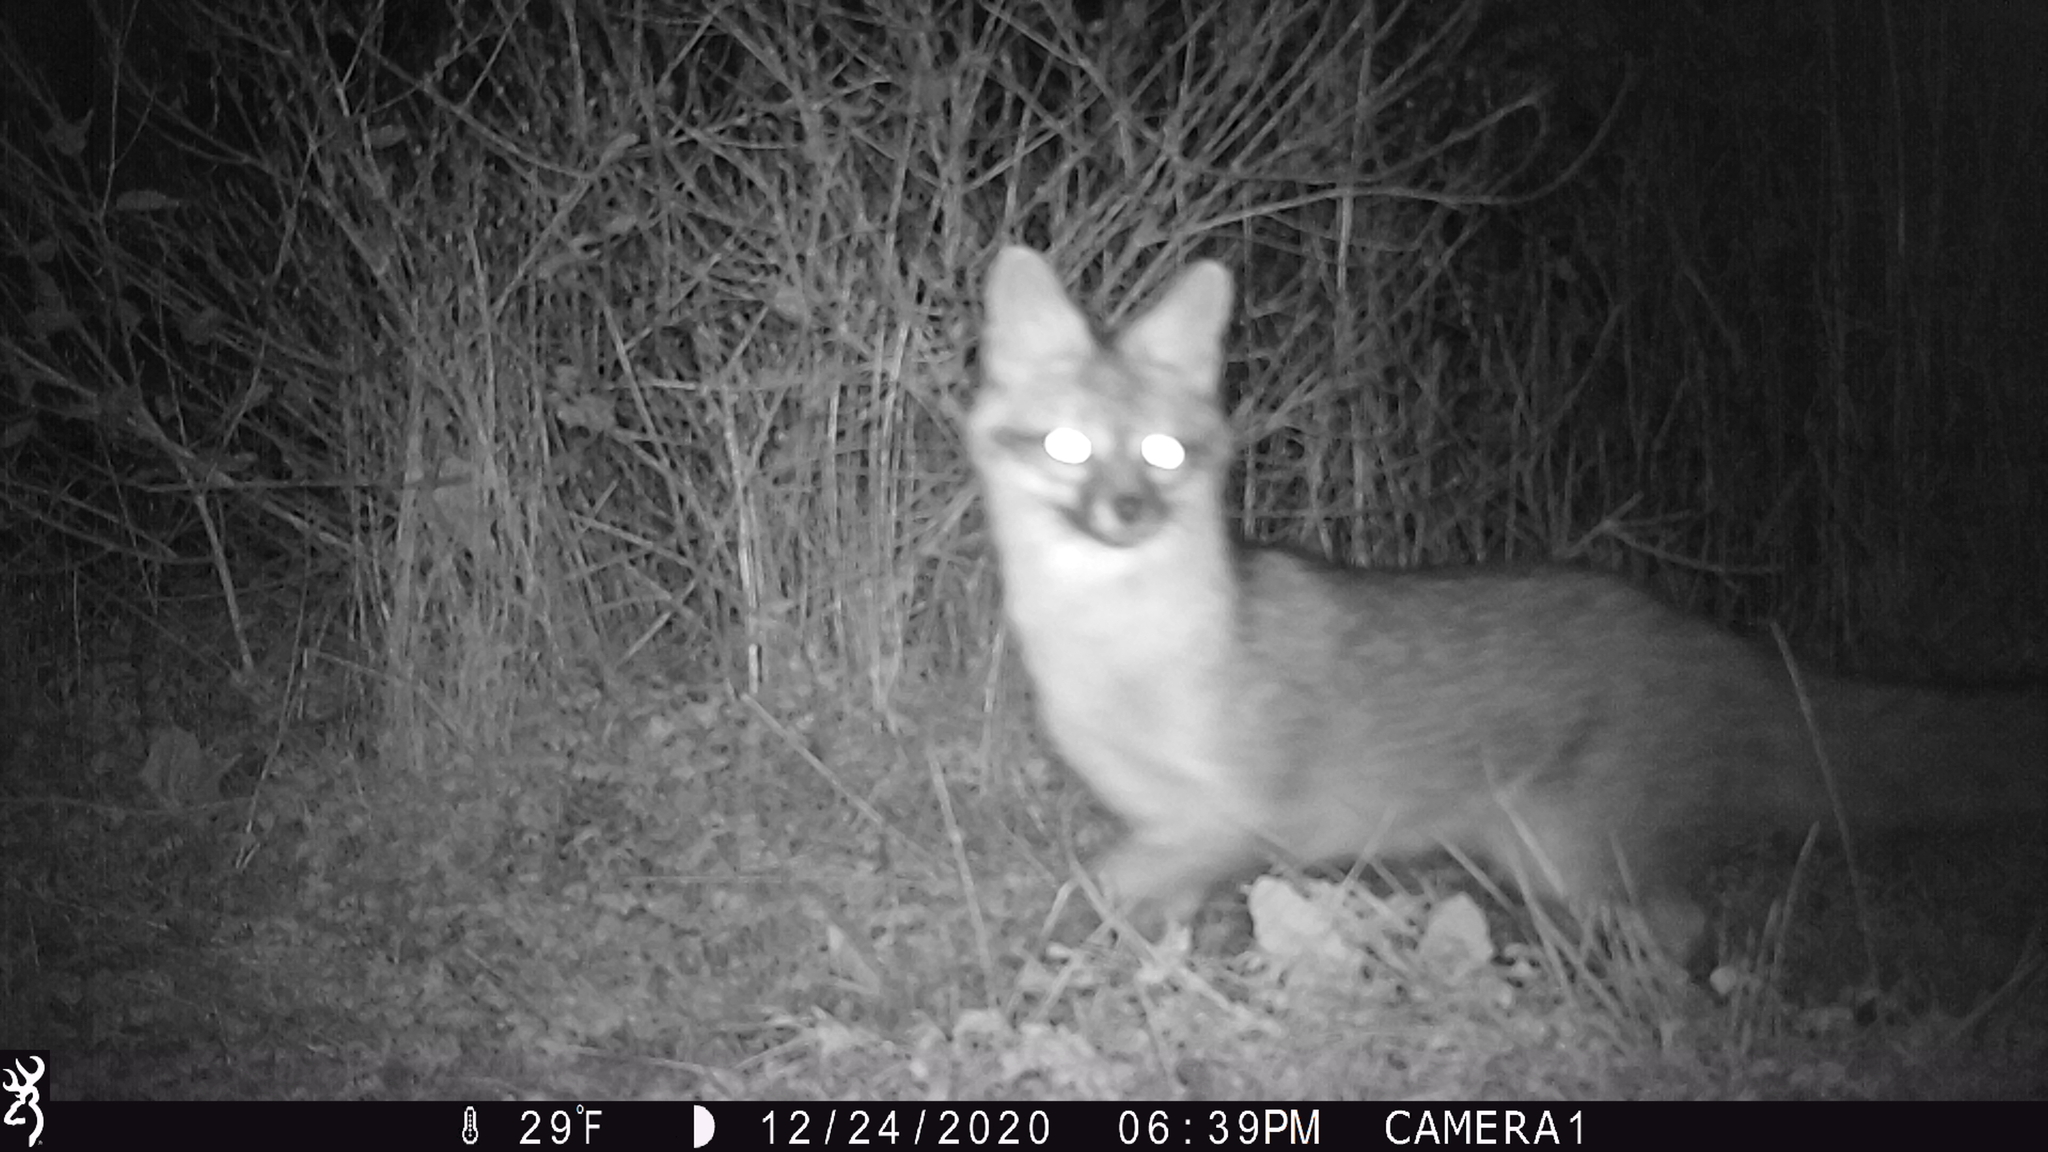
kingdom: Animalia
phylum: Chordata
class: Mammalia
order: Carnivora
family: Canidae
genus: Urocyon
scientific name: Urocyon cinereoargenteus
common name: Gray fox
